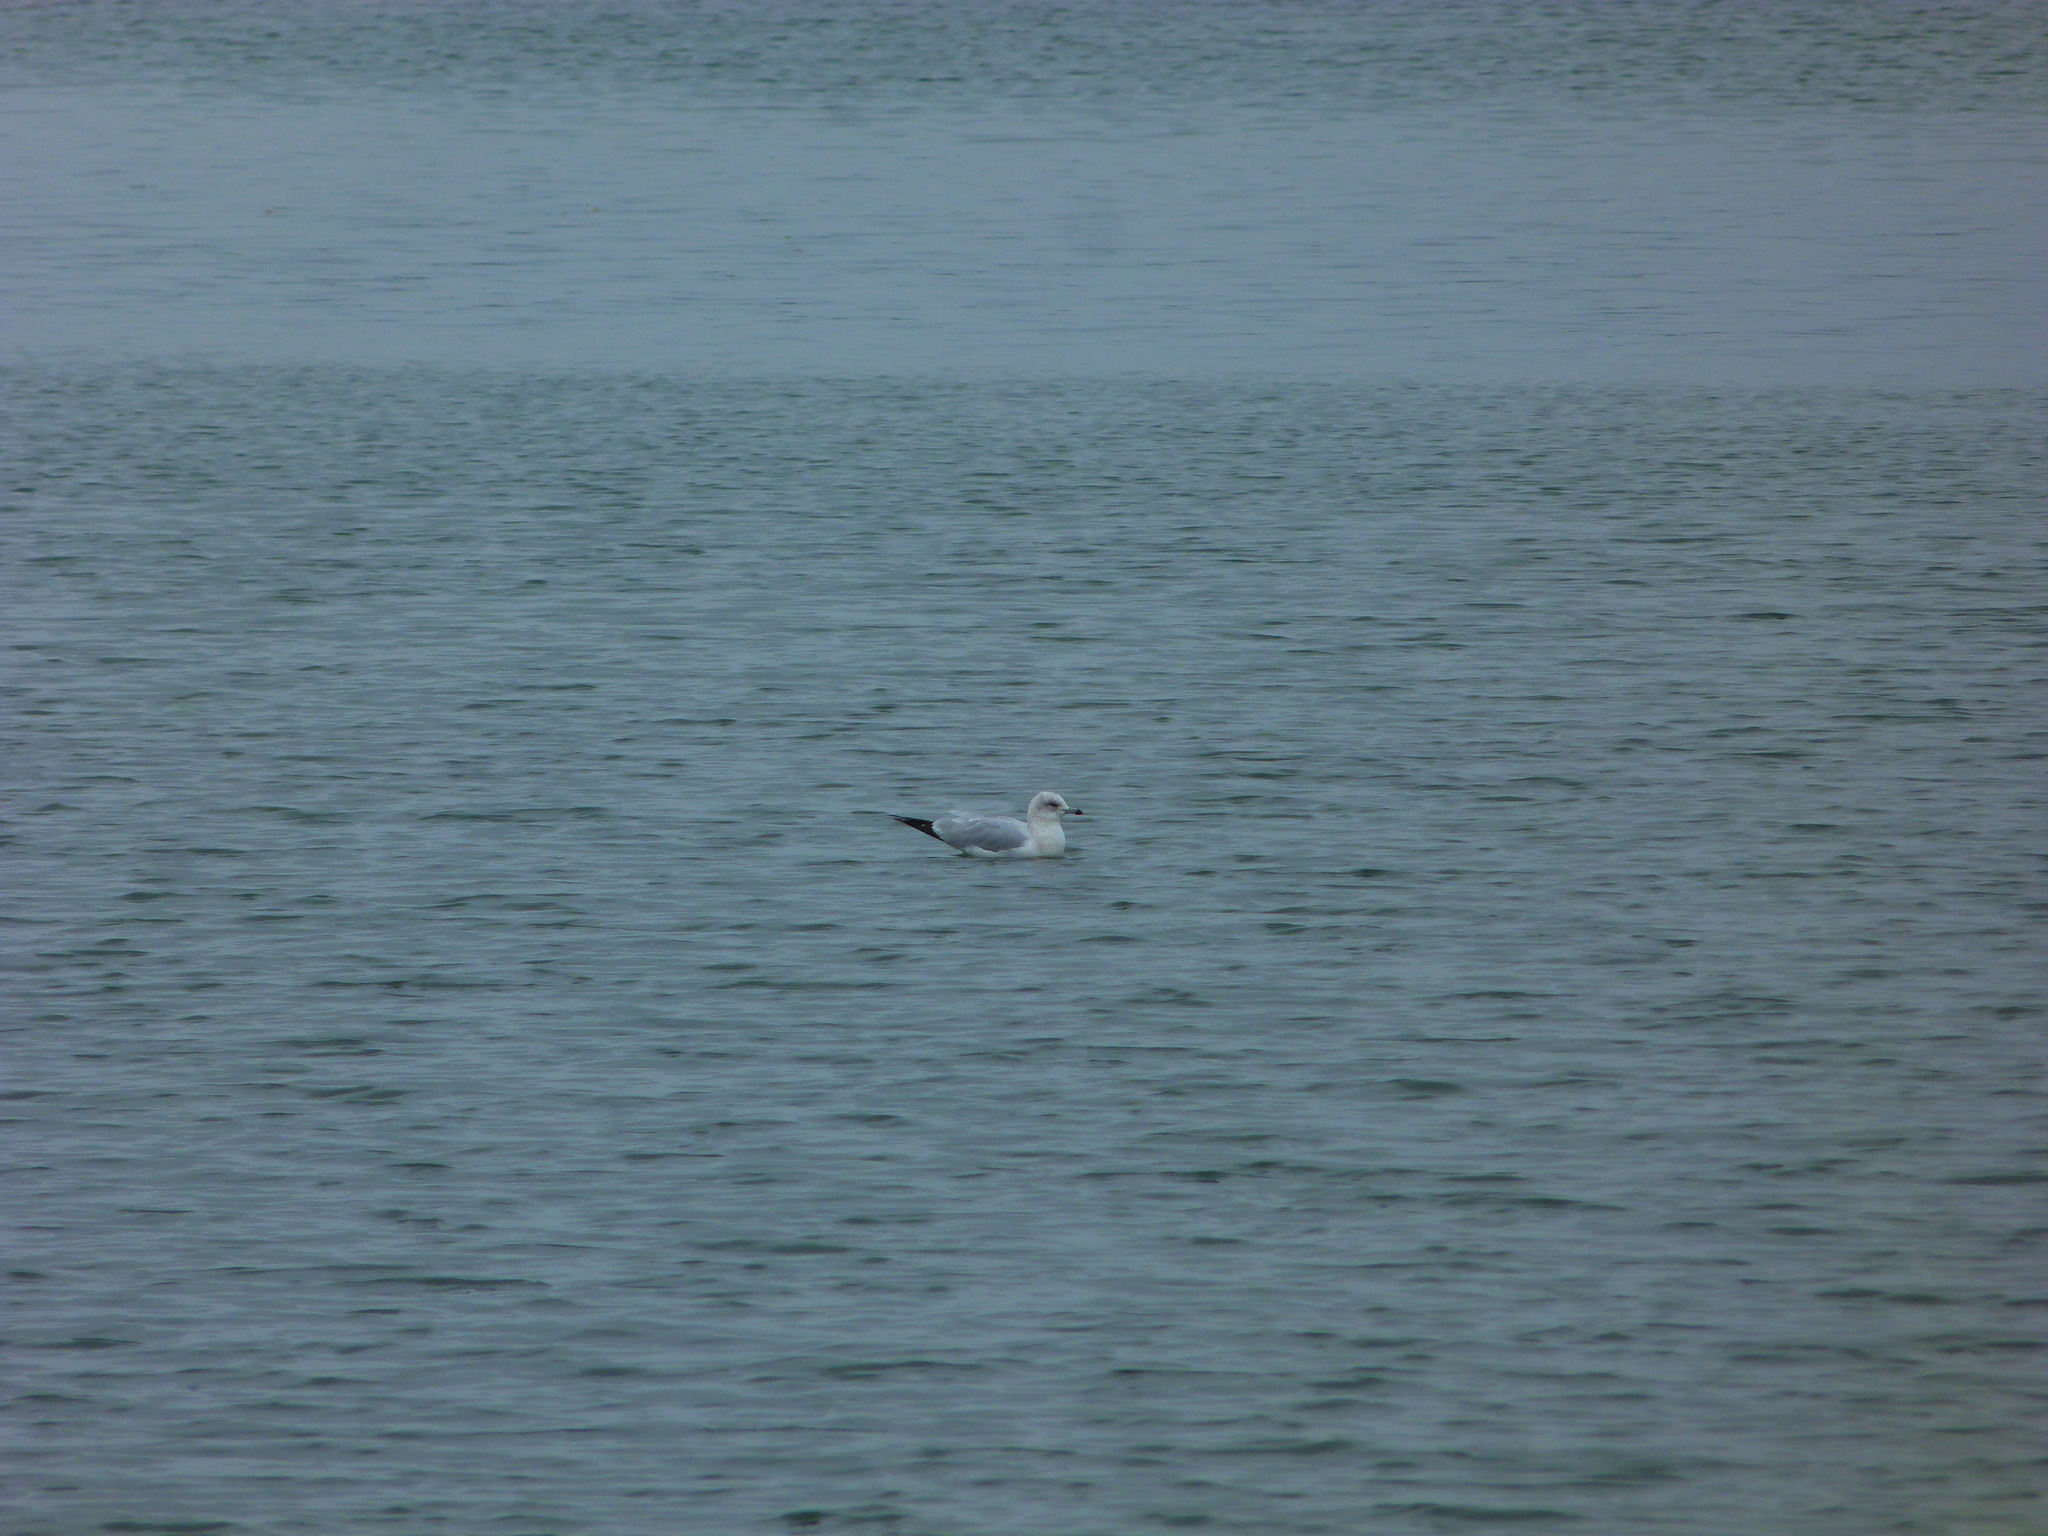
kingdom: Animalia
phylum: Chordata
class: Aves
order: Charadriiformes
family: Laridae
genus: Larus
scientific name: Larus delawarensis
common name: Ring-billed gull
